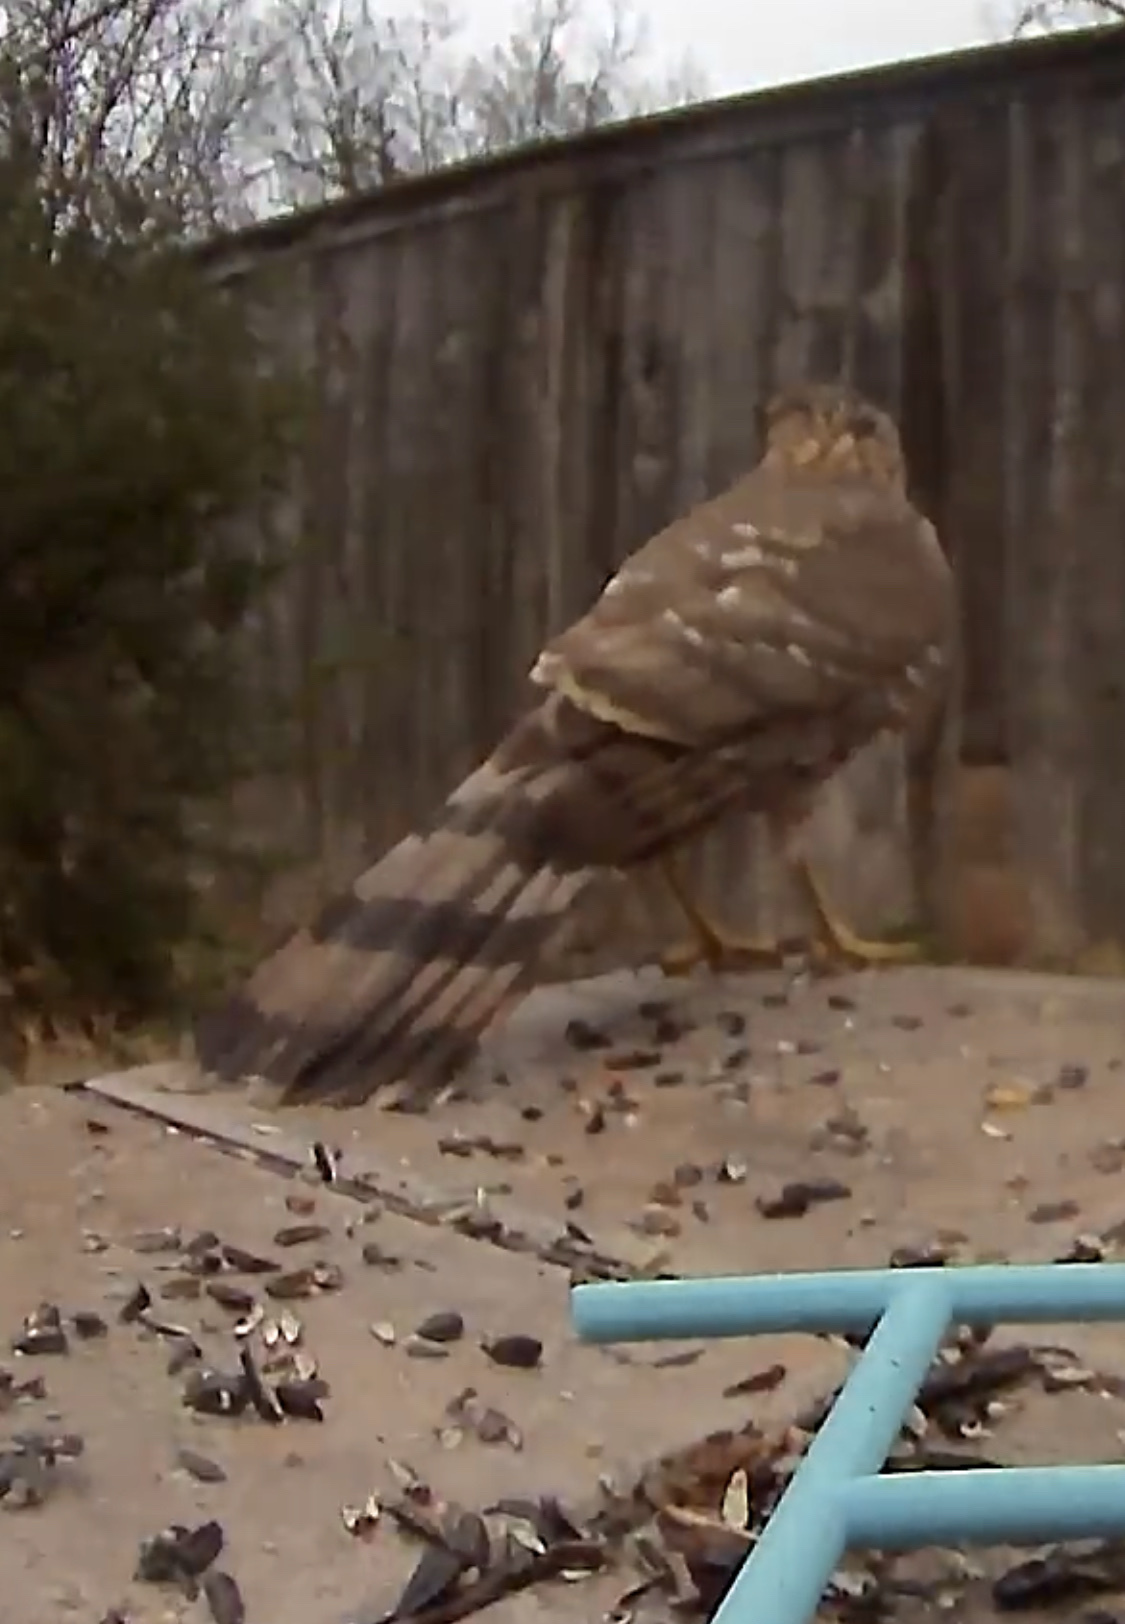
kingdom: Animalia
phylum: Chordata
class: Aves
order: Accipitriformes
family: Accipitridae
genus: Accipiter
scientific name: Accipiter cooperii
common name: Cooper's hawk
